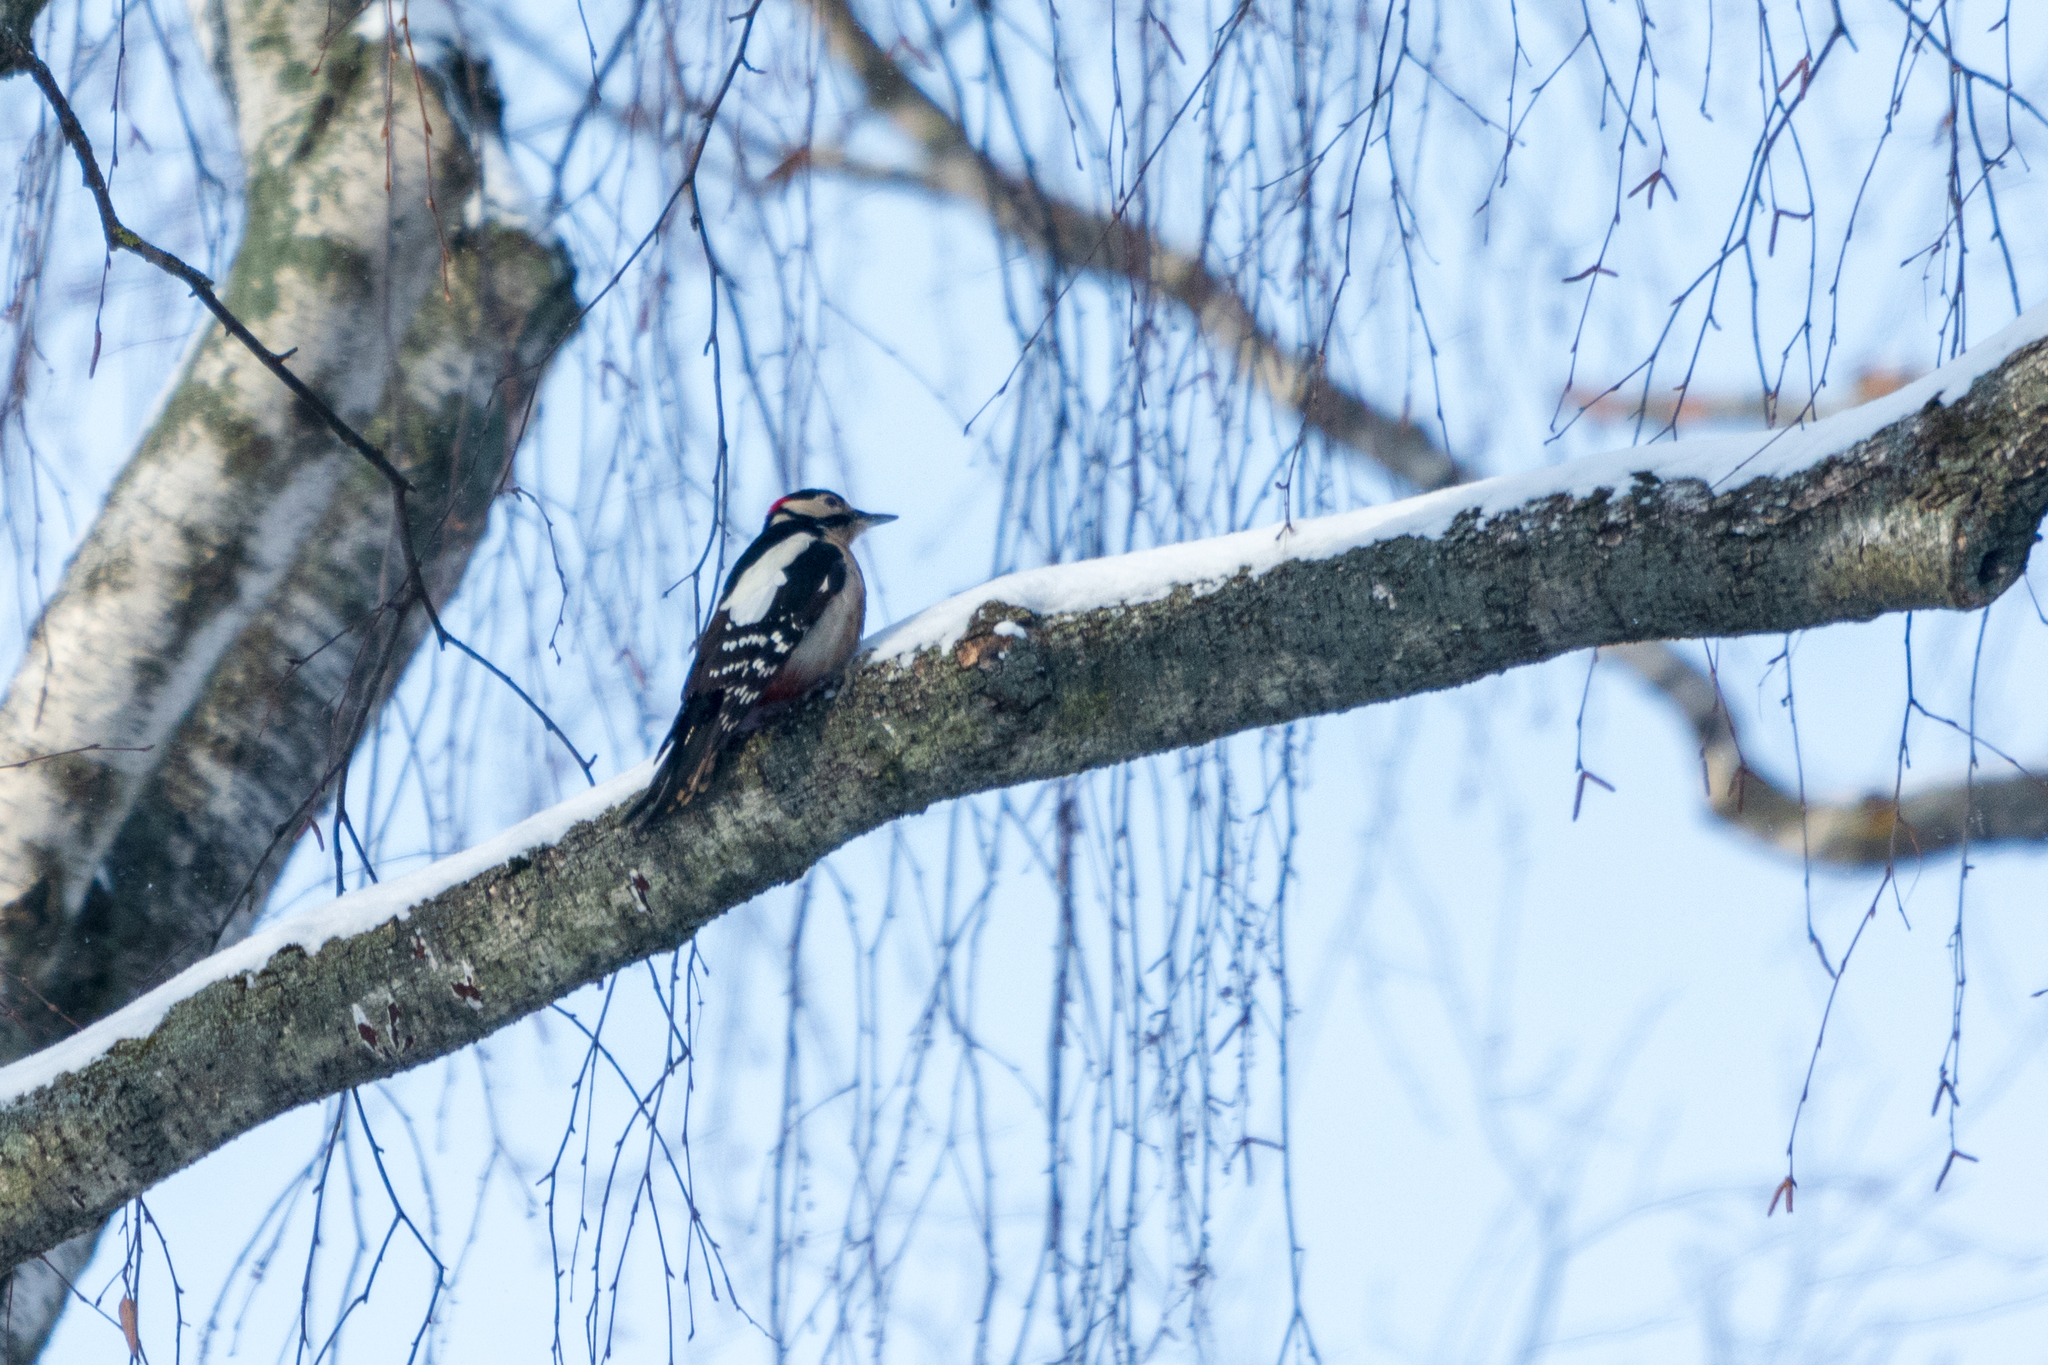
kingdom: Animalia
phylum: Chordata
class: Aves
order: Piciformes
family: Picidae
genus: Dendrocopos
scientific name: Dendrocopos major
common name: Great spotted woodpecker
